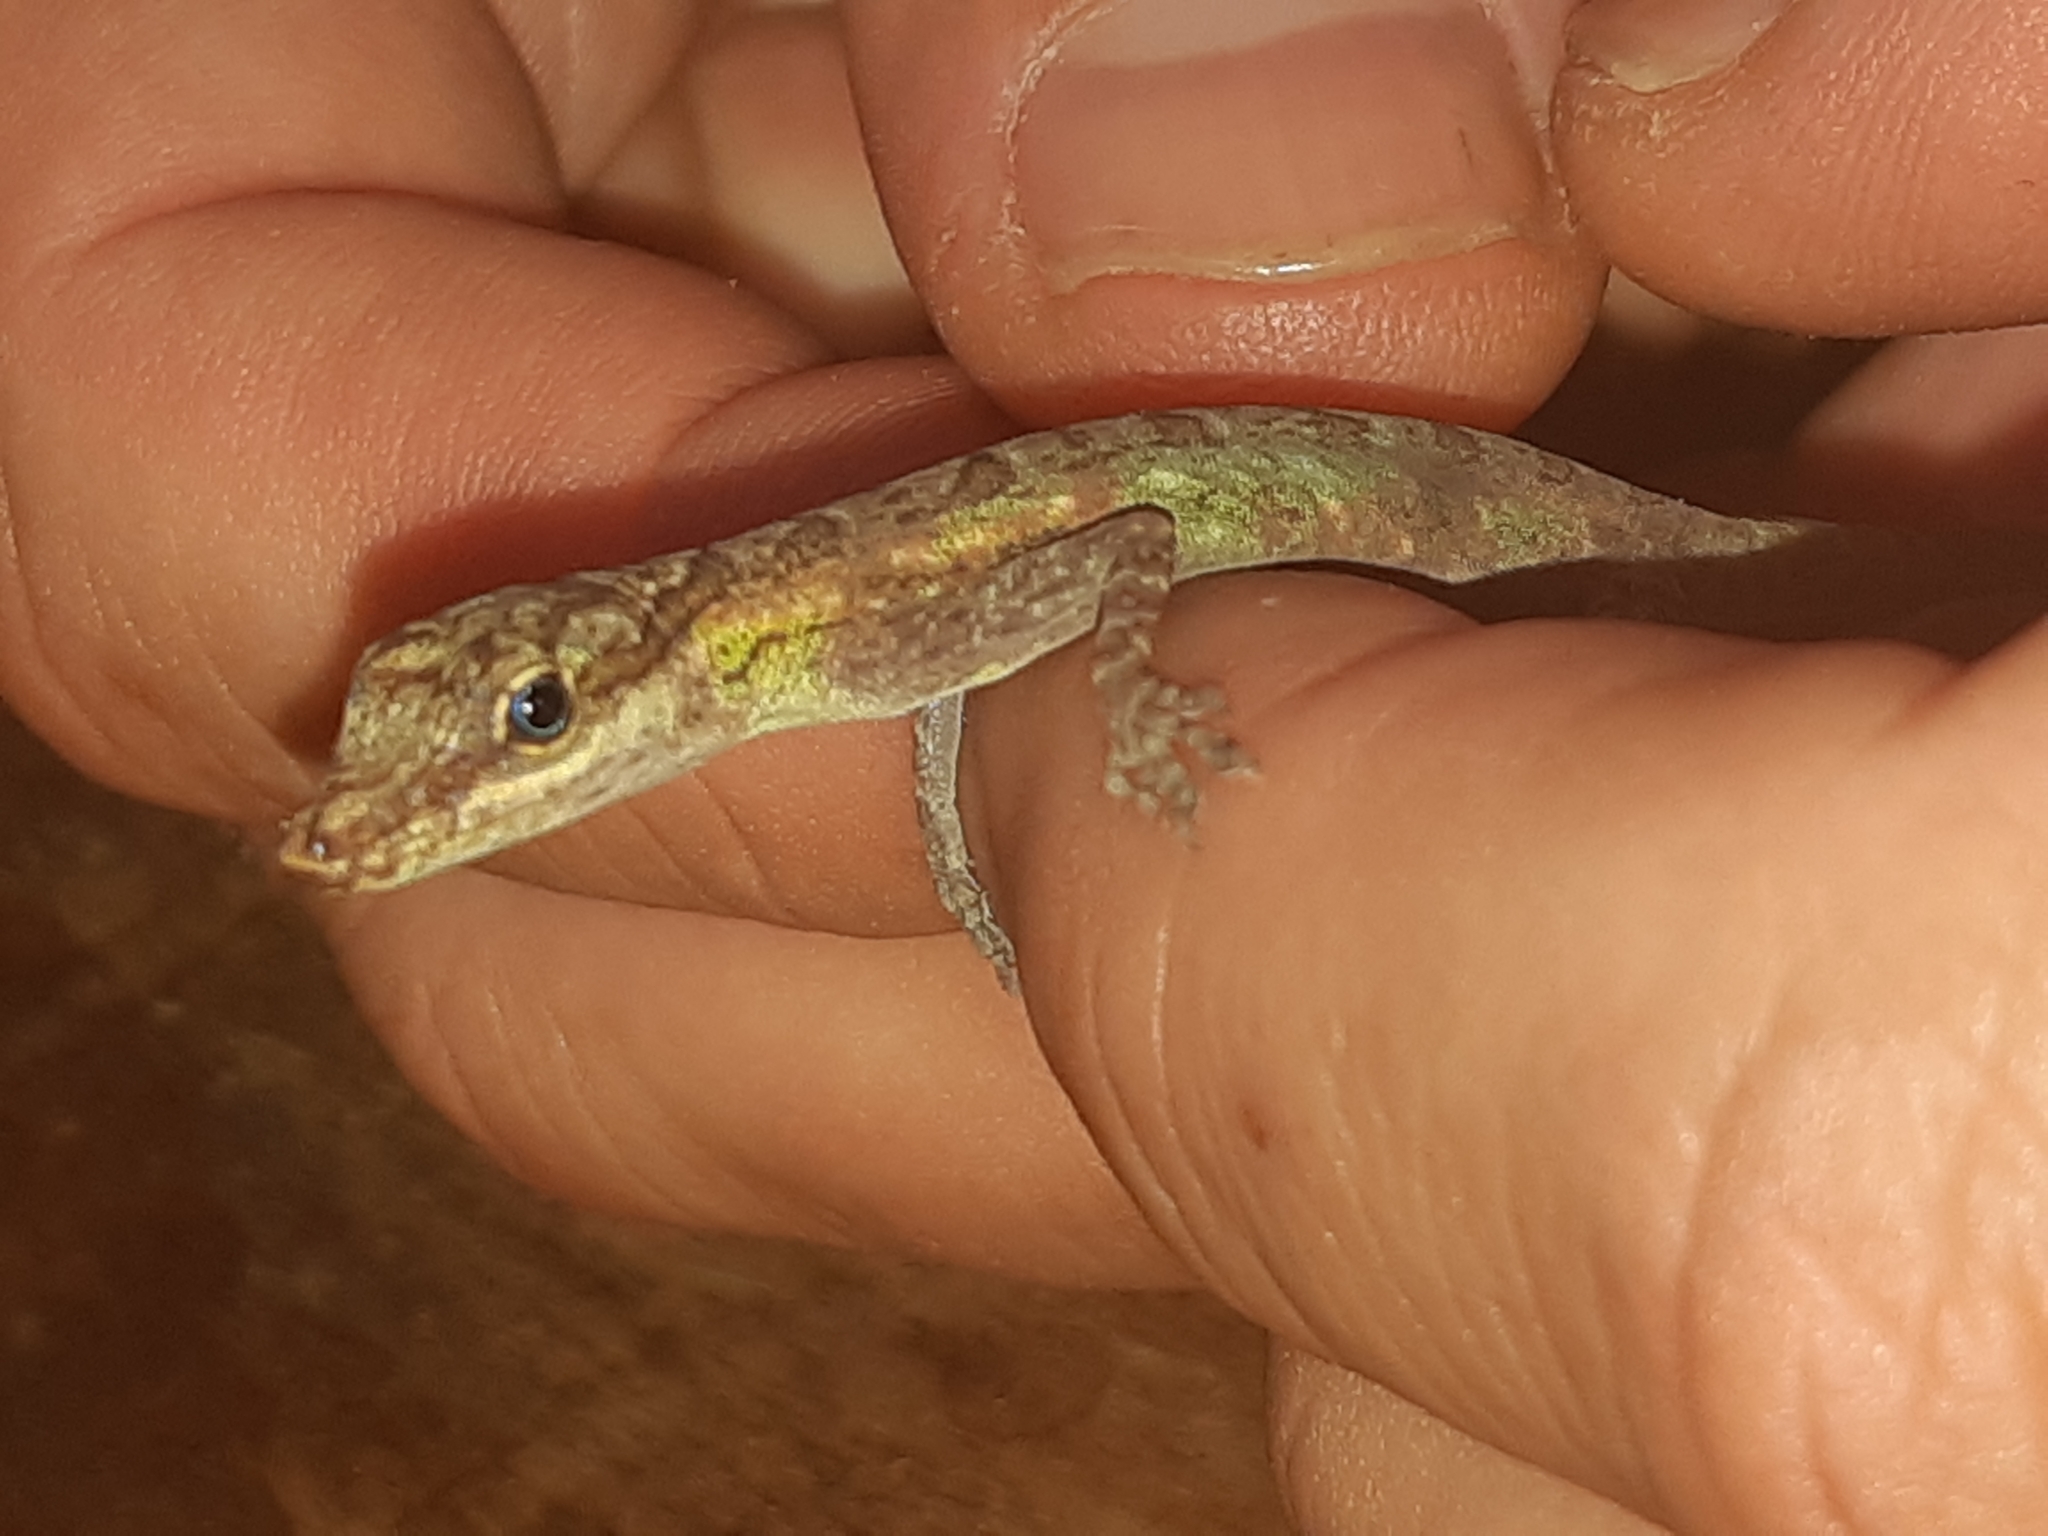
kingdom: Animalia
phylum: Chordata
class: Squamata
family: Dactyloidae
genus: Anolis
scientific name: Anolis peraccae
